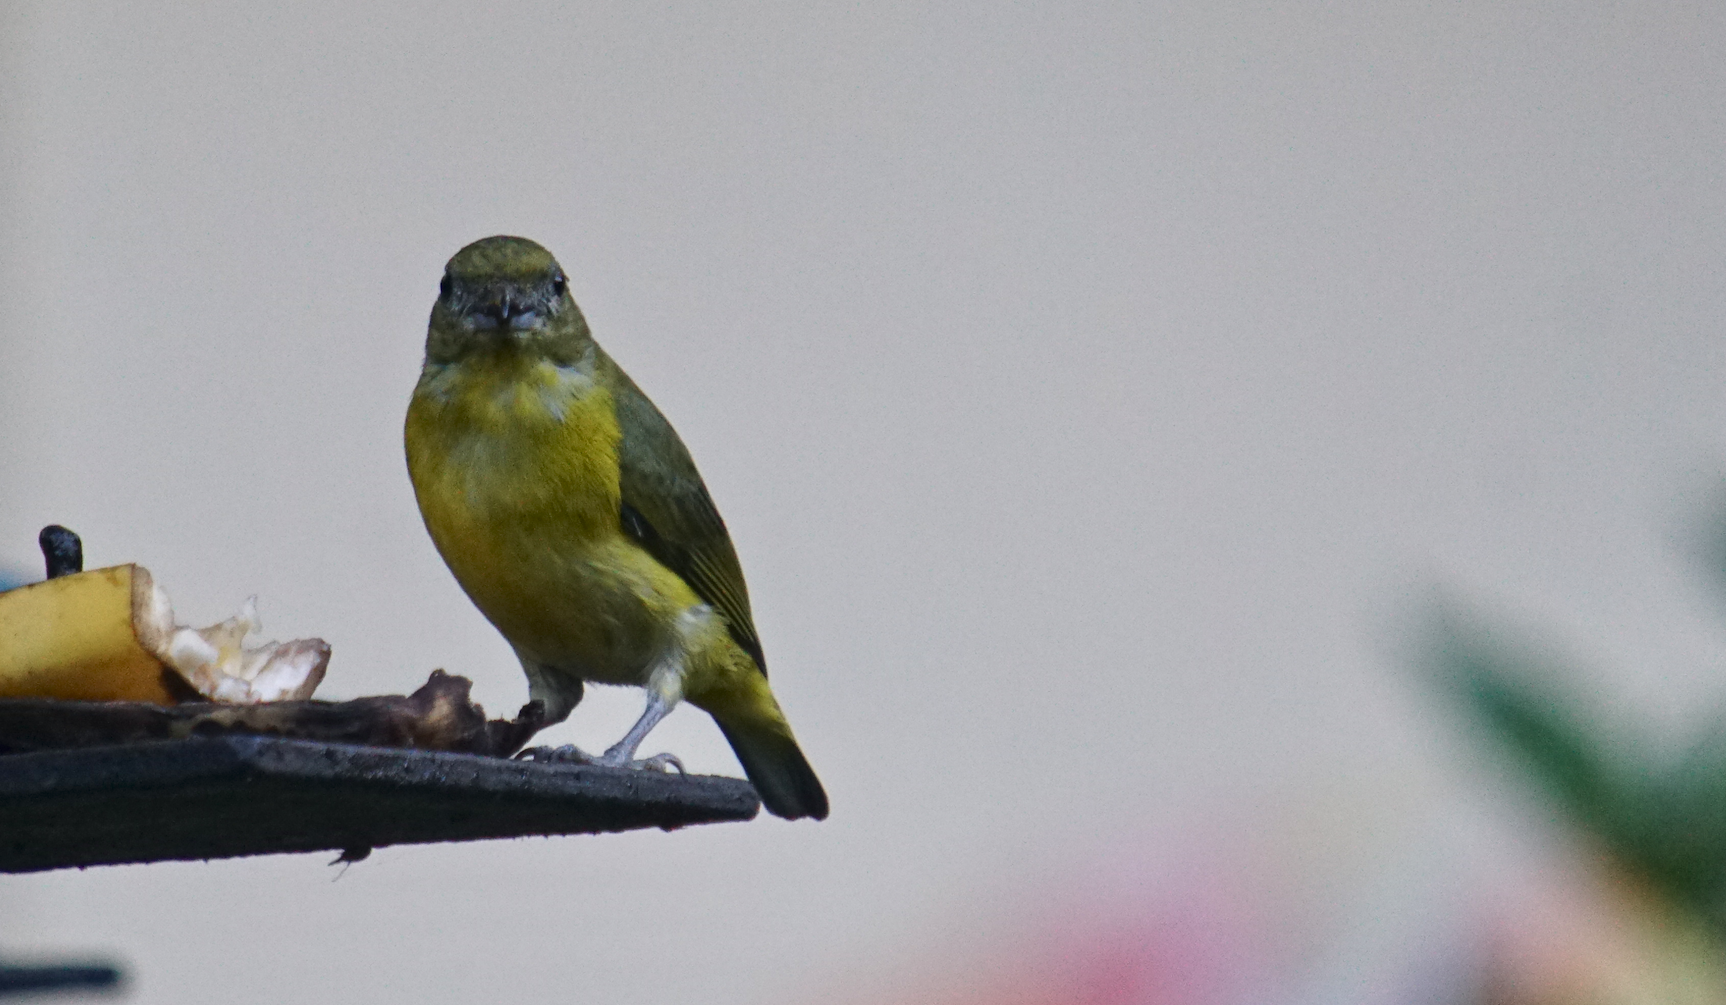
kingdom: Animalia
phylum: Chordata
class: Aves
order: Passeriformes
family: Fringillidae
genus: Euphonia
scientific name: Euphonia hirundinacea
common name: Yellow-throated euphonia
